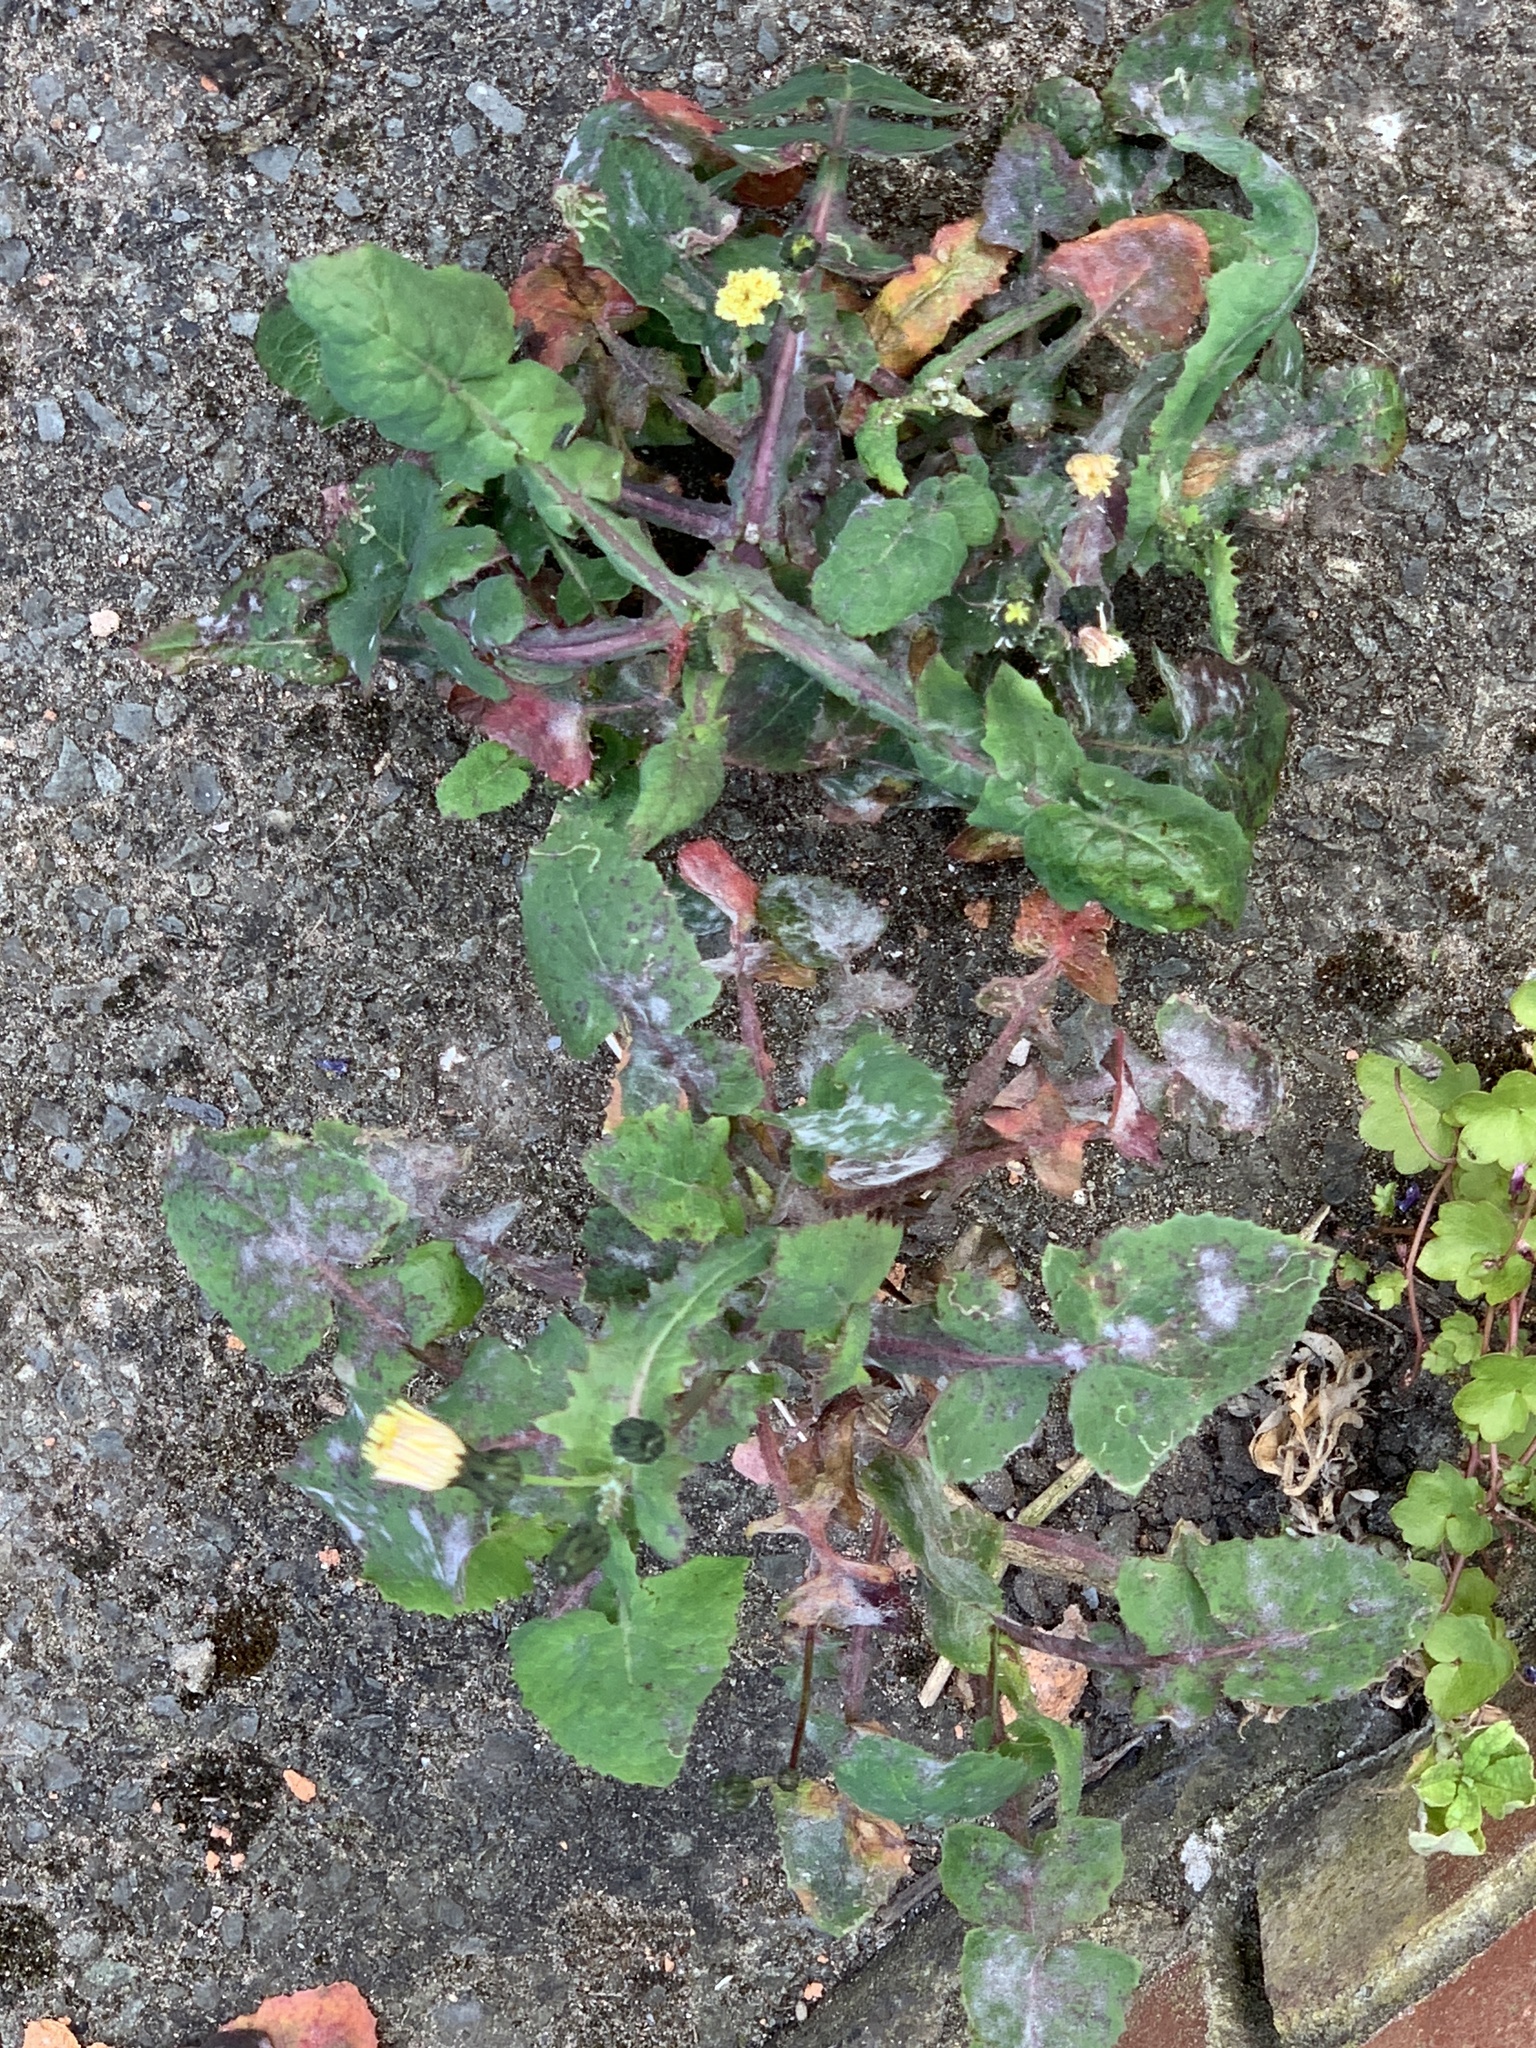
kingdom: Plantae
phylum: Tracheophyta
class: Magnoliopsida
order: Asterales
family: Asteraceae
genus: Sonchus
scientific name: Sonchus oleraceus
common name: Common sowthistle
